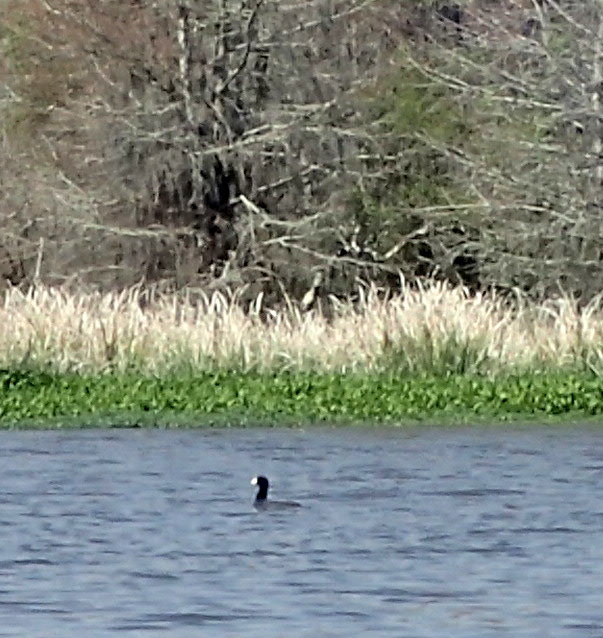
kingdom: Animalia
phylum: Chordata
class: Aves
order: Gruiformes
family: Rallidae
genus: Fulica
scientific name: Fulica americana
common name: American coot
